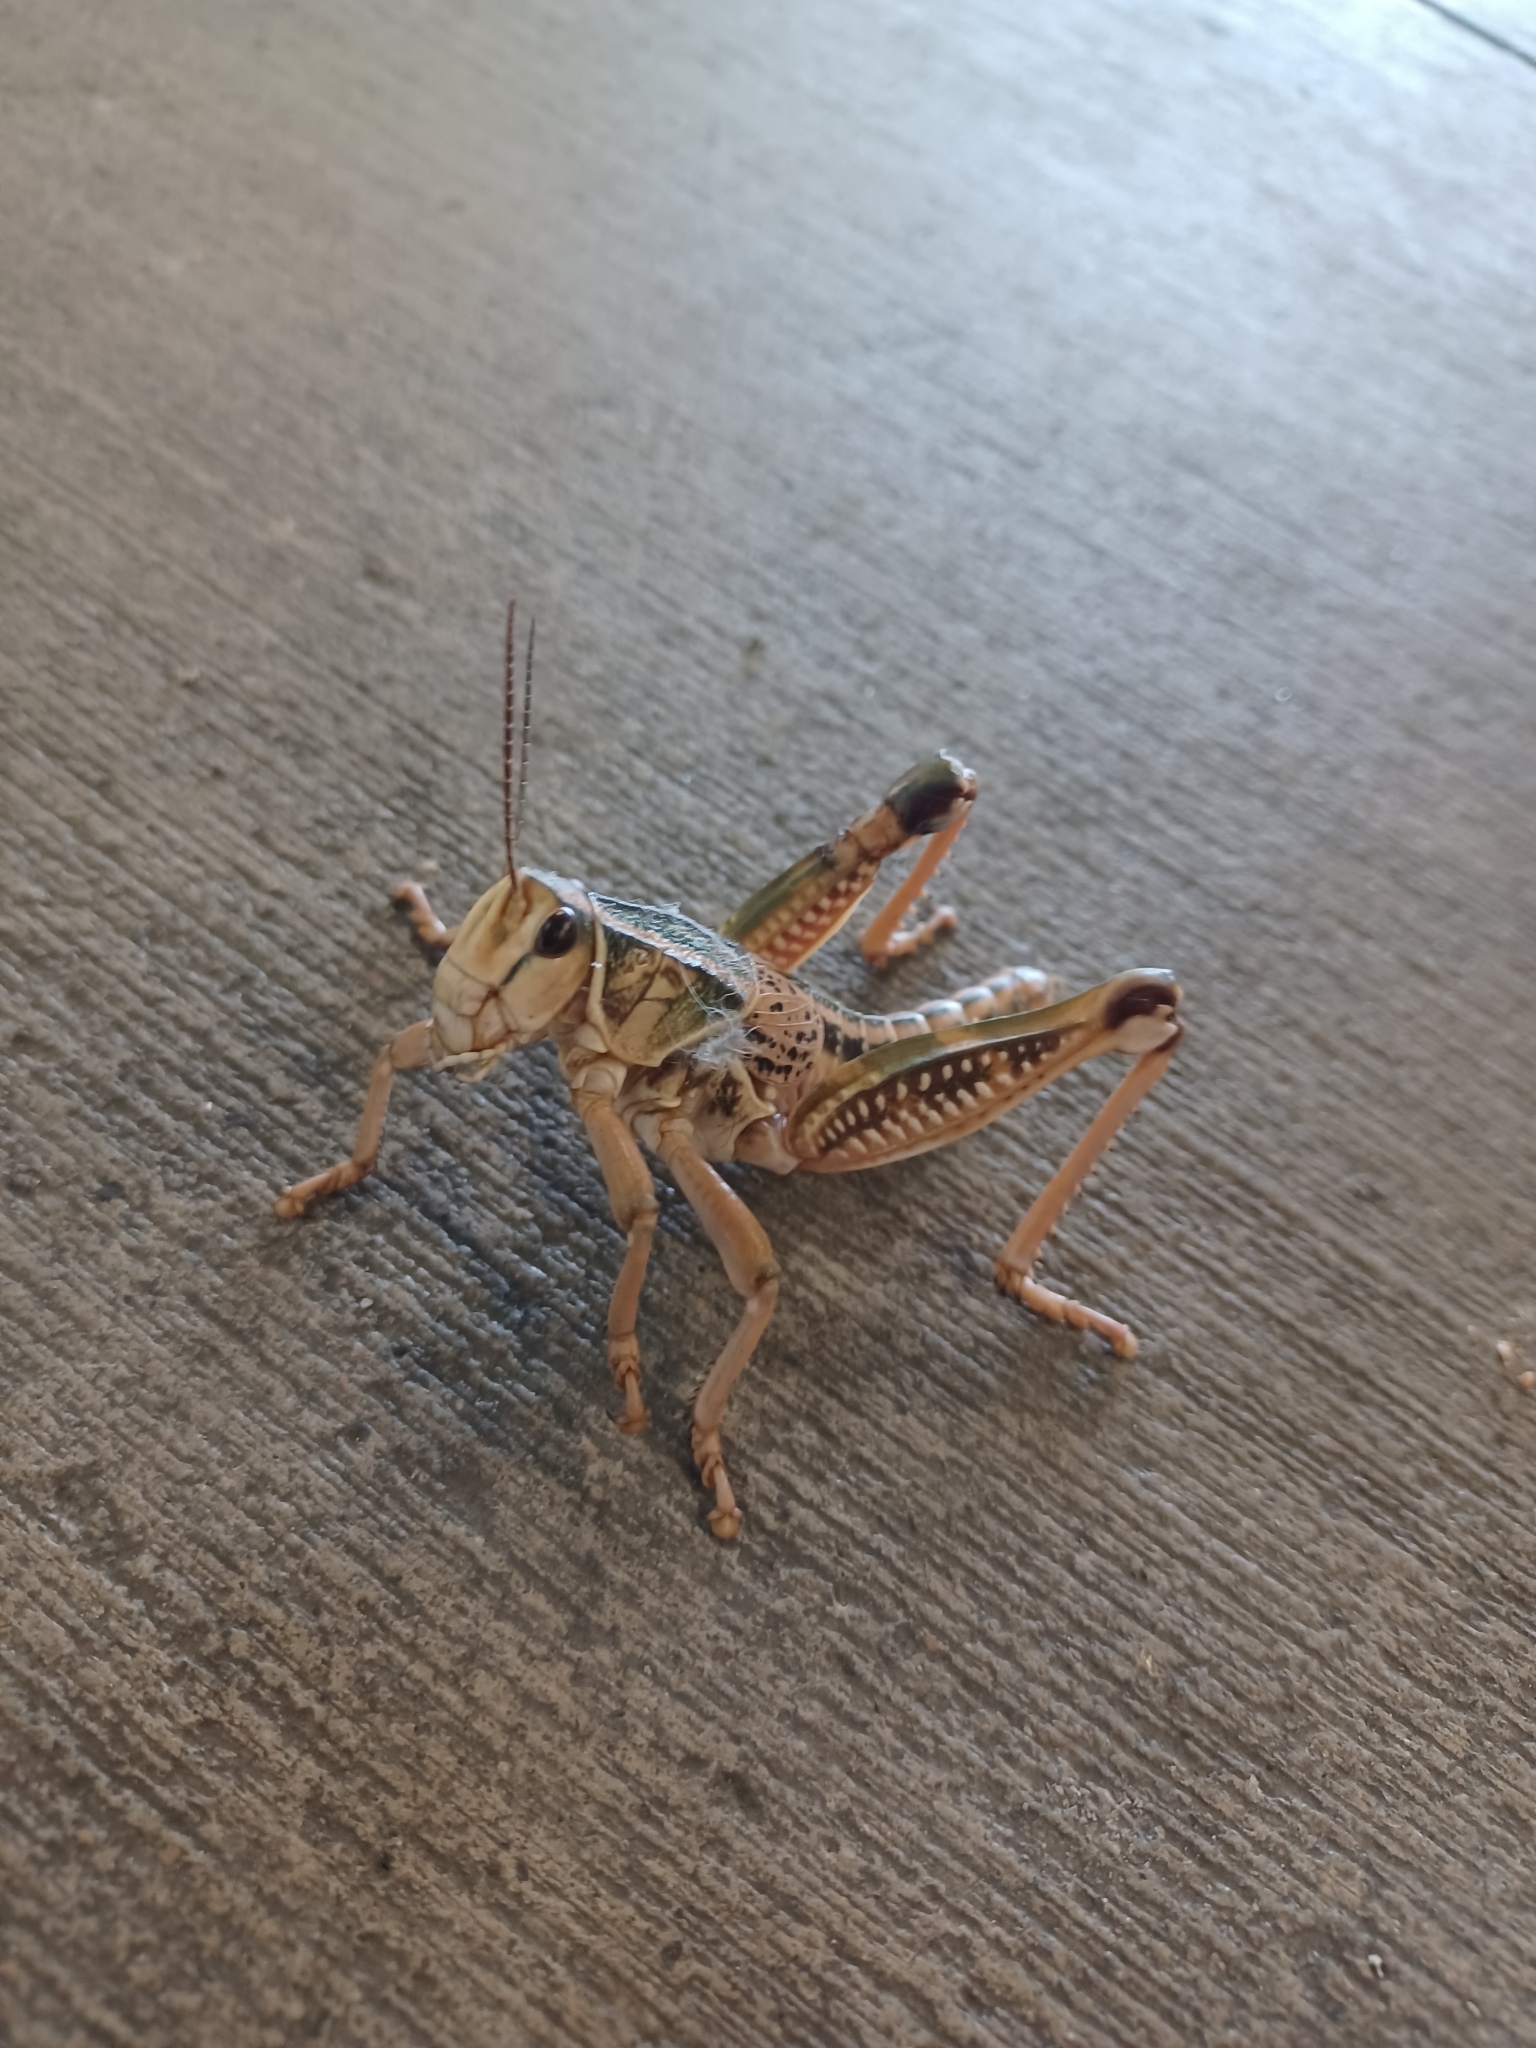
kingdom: Animalia
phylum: Arthropoda
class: Insecta
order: Orthoptera
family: Romaleidae
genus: Brachystola
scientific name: Brachystola magna
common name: Plains lubber grasshopper
